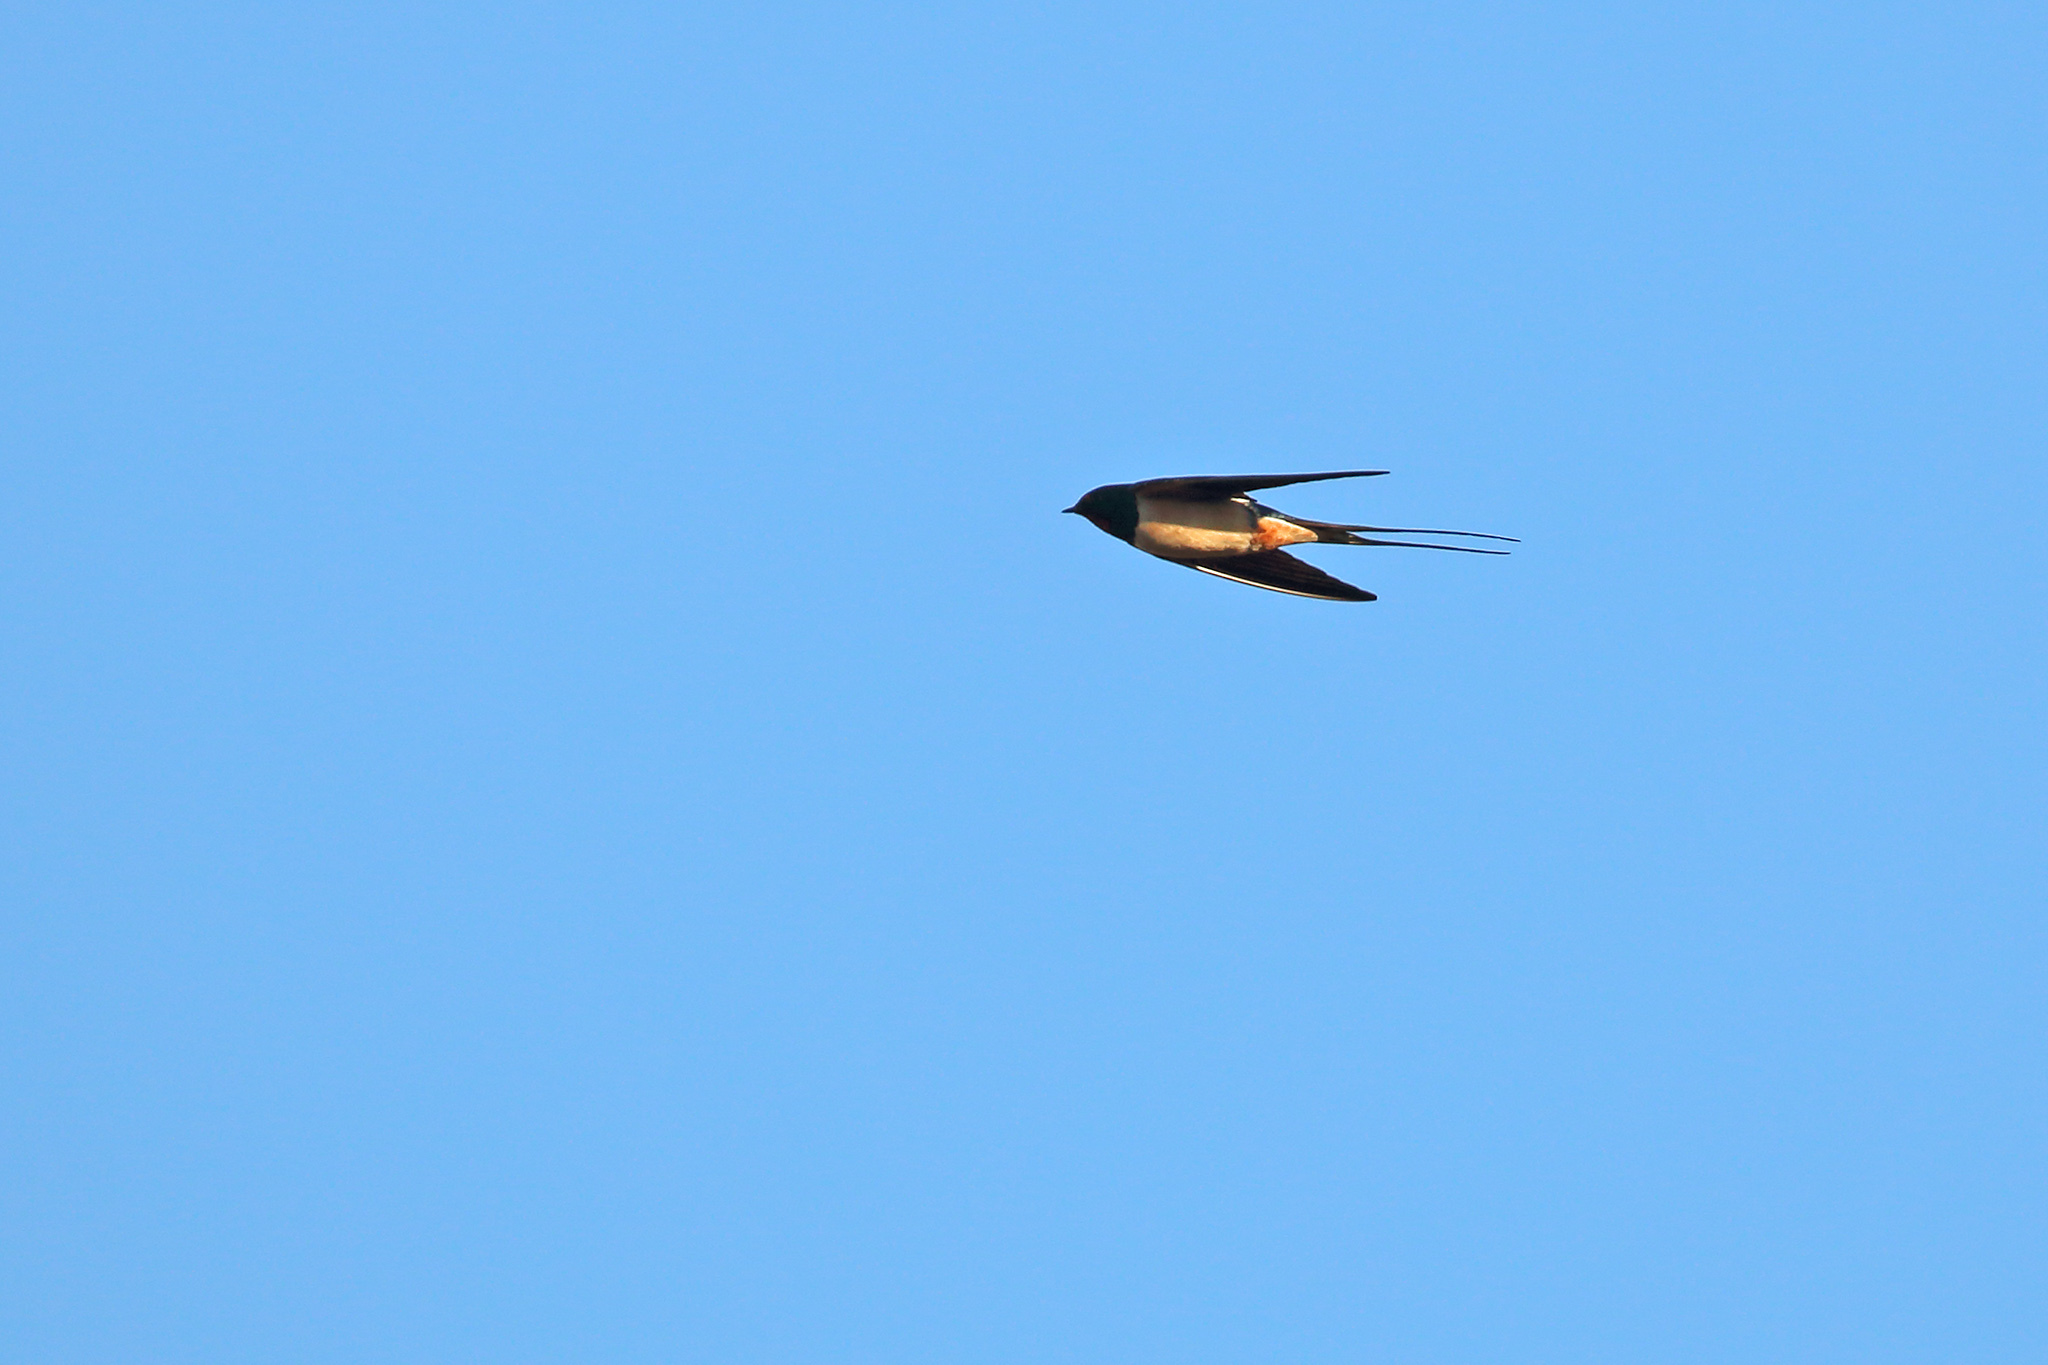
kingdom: Animalia
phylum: Chordata
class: Aves
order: Passeriformes
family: Hirundinidae
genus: Hirundo
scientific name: Hirundo rustica
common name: Barn swallow
